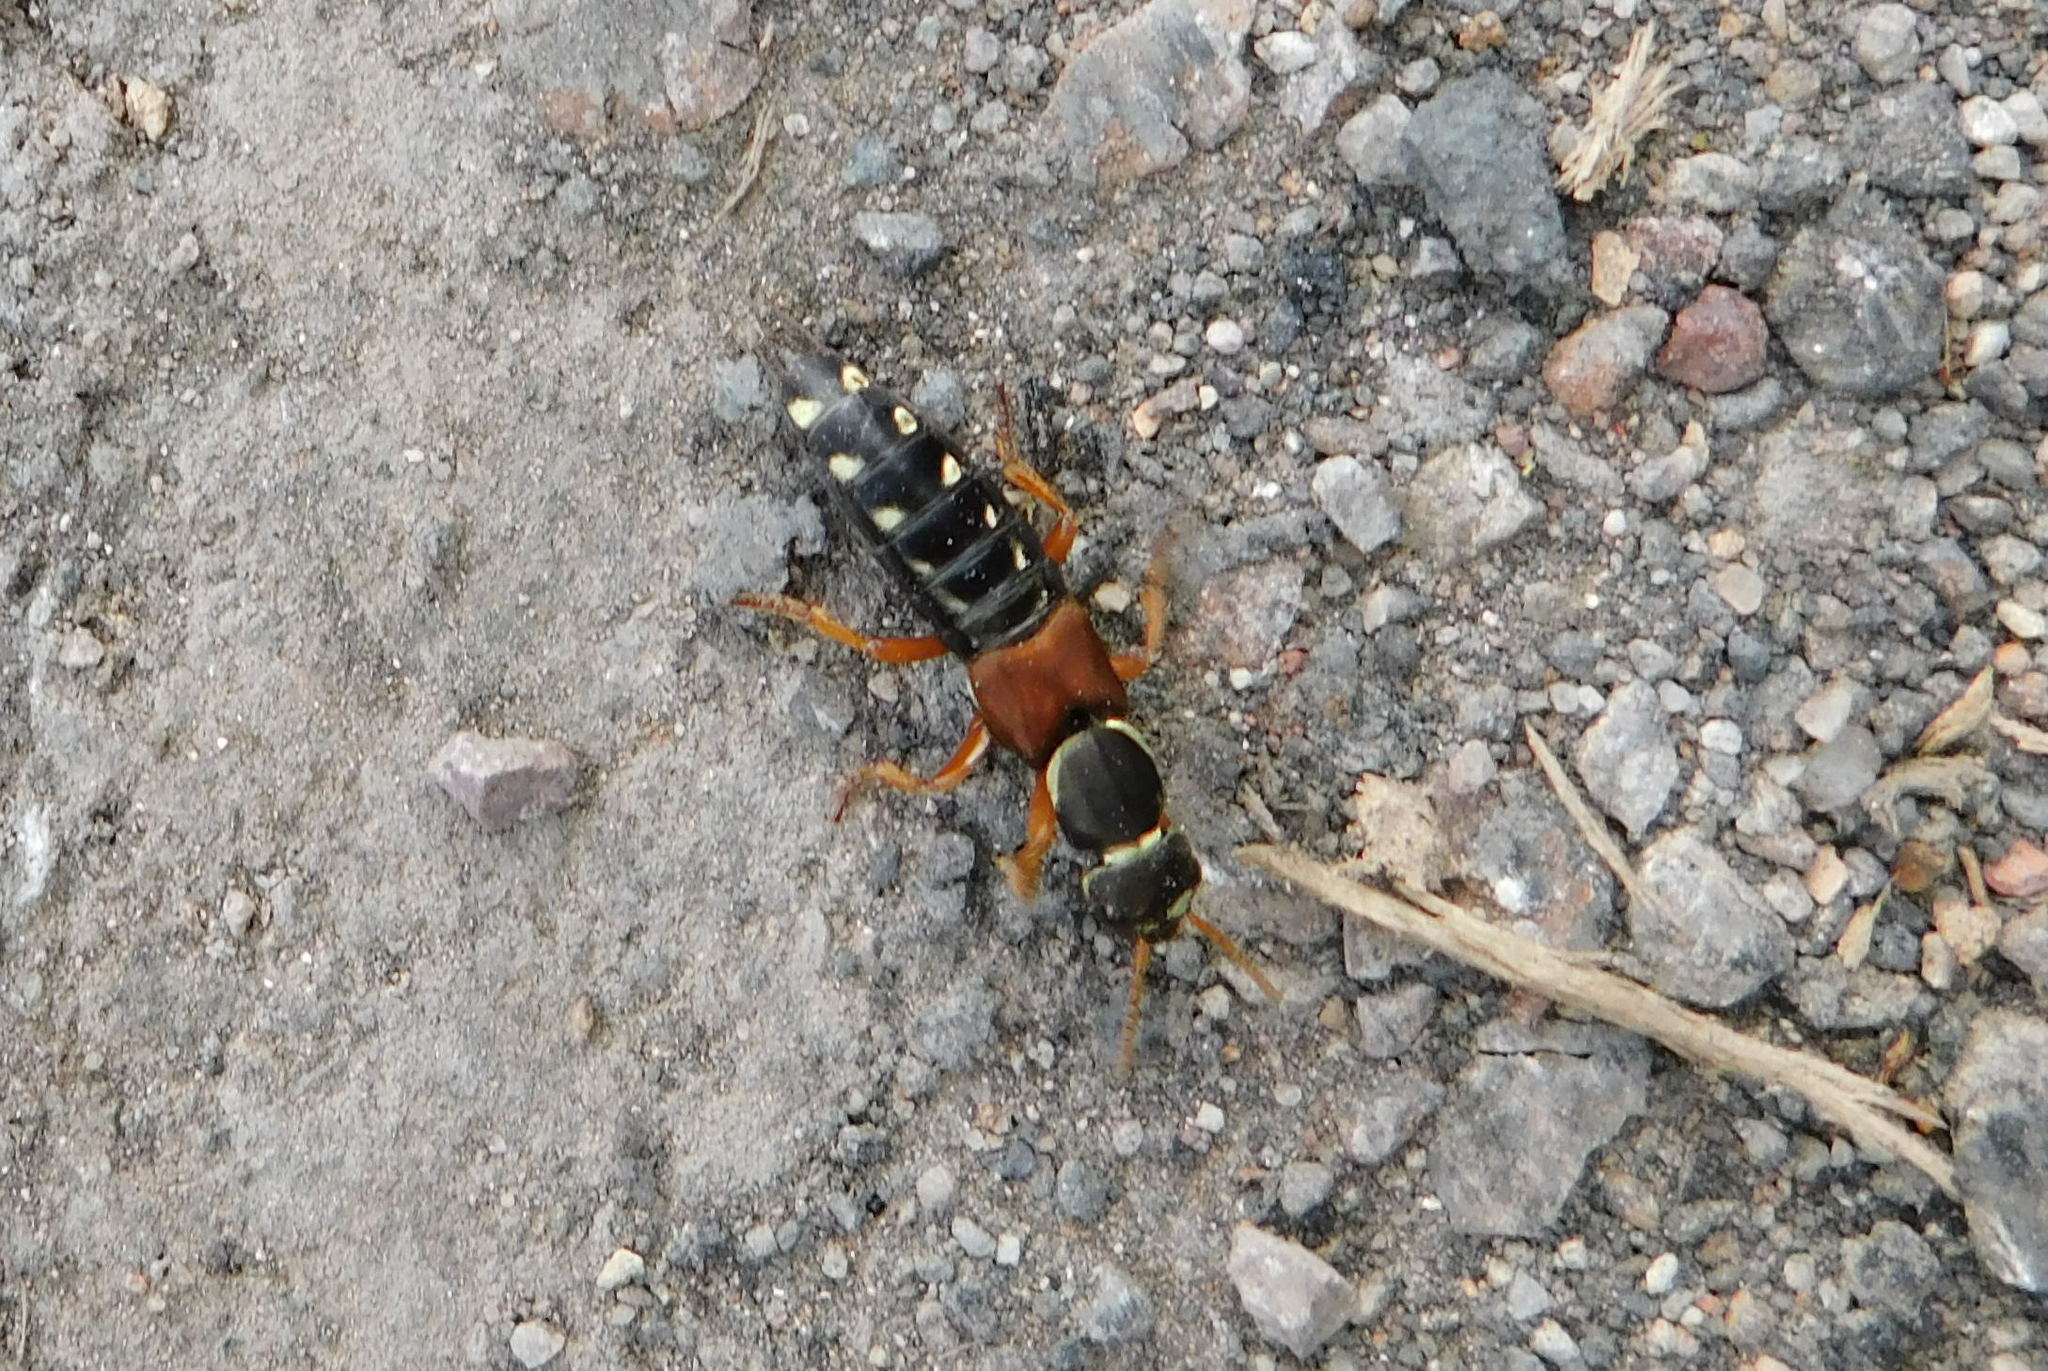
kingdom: Animalia
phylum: Arthropoda
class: Insecta
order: Coleoptera
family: Staphylinidae
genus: Staphylinus
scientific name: Staphylinus caesareus
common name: Staph beetle
